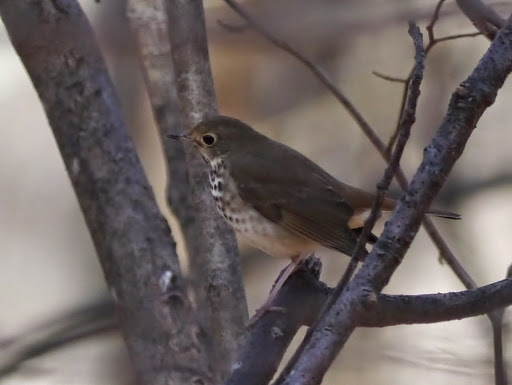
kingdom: Animalia
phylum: Chordata
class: Aves
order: Passeriformes
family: Turdidae
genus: Catharus
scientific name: Catharus guttatus
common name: Hermit thrush
